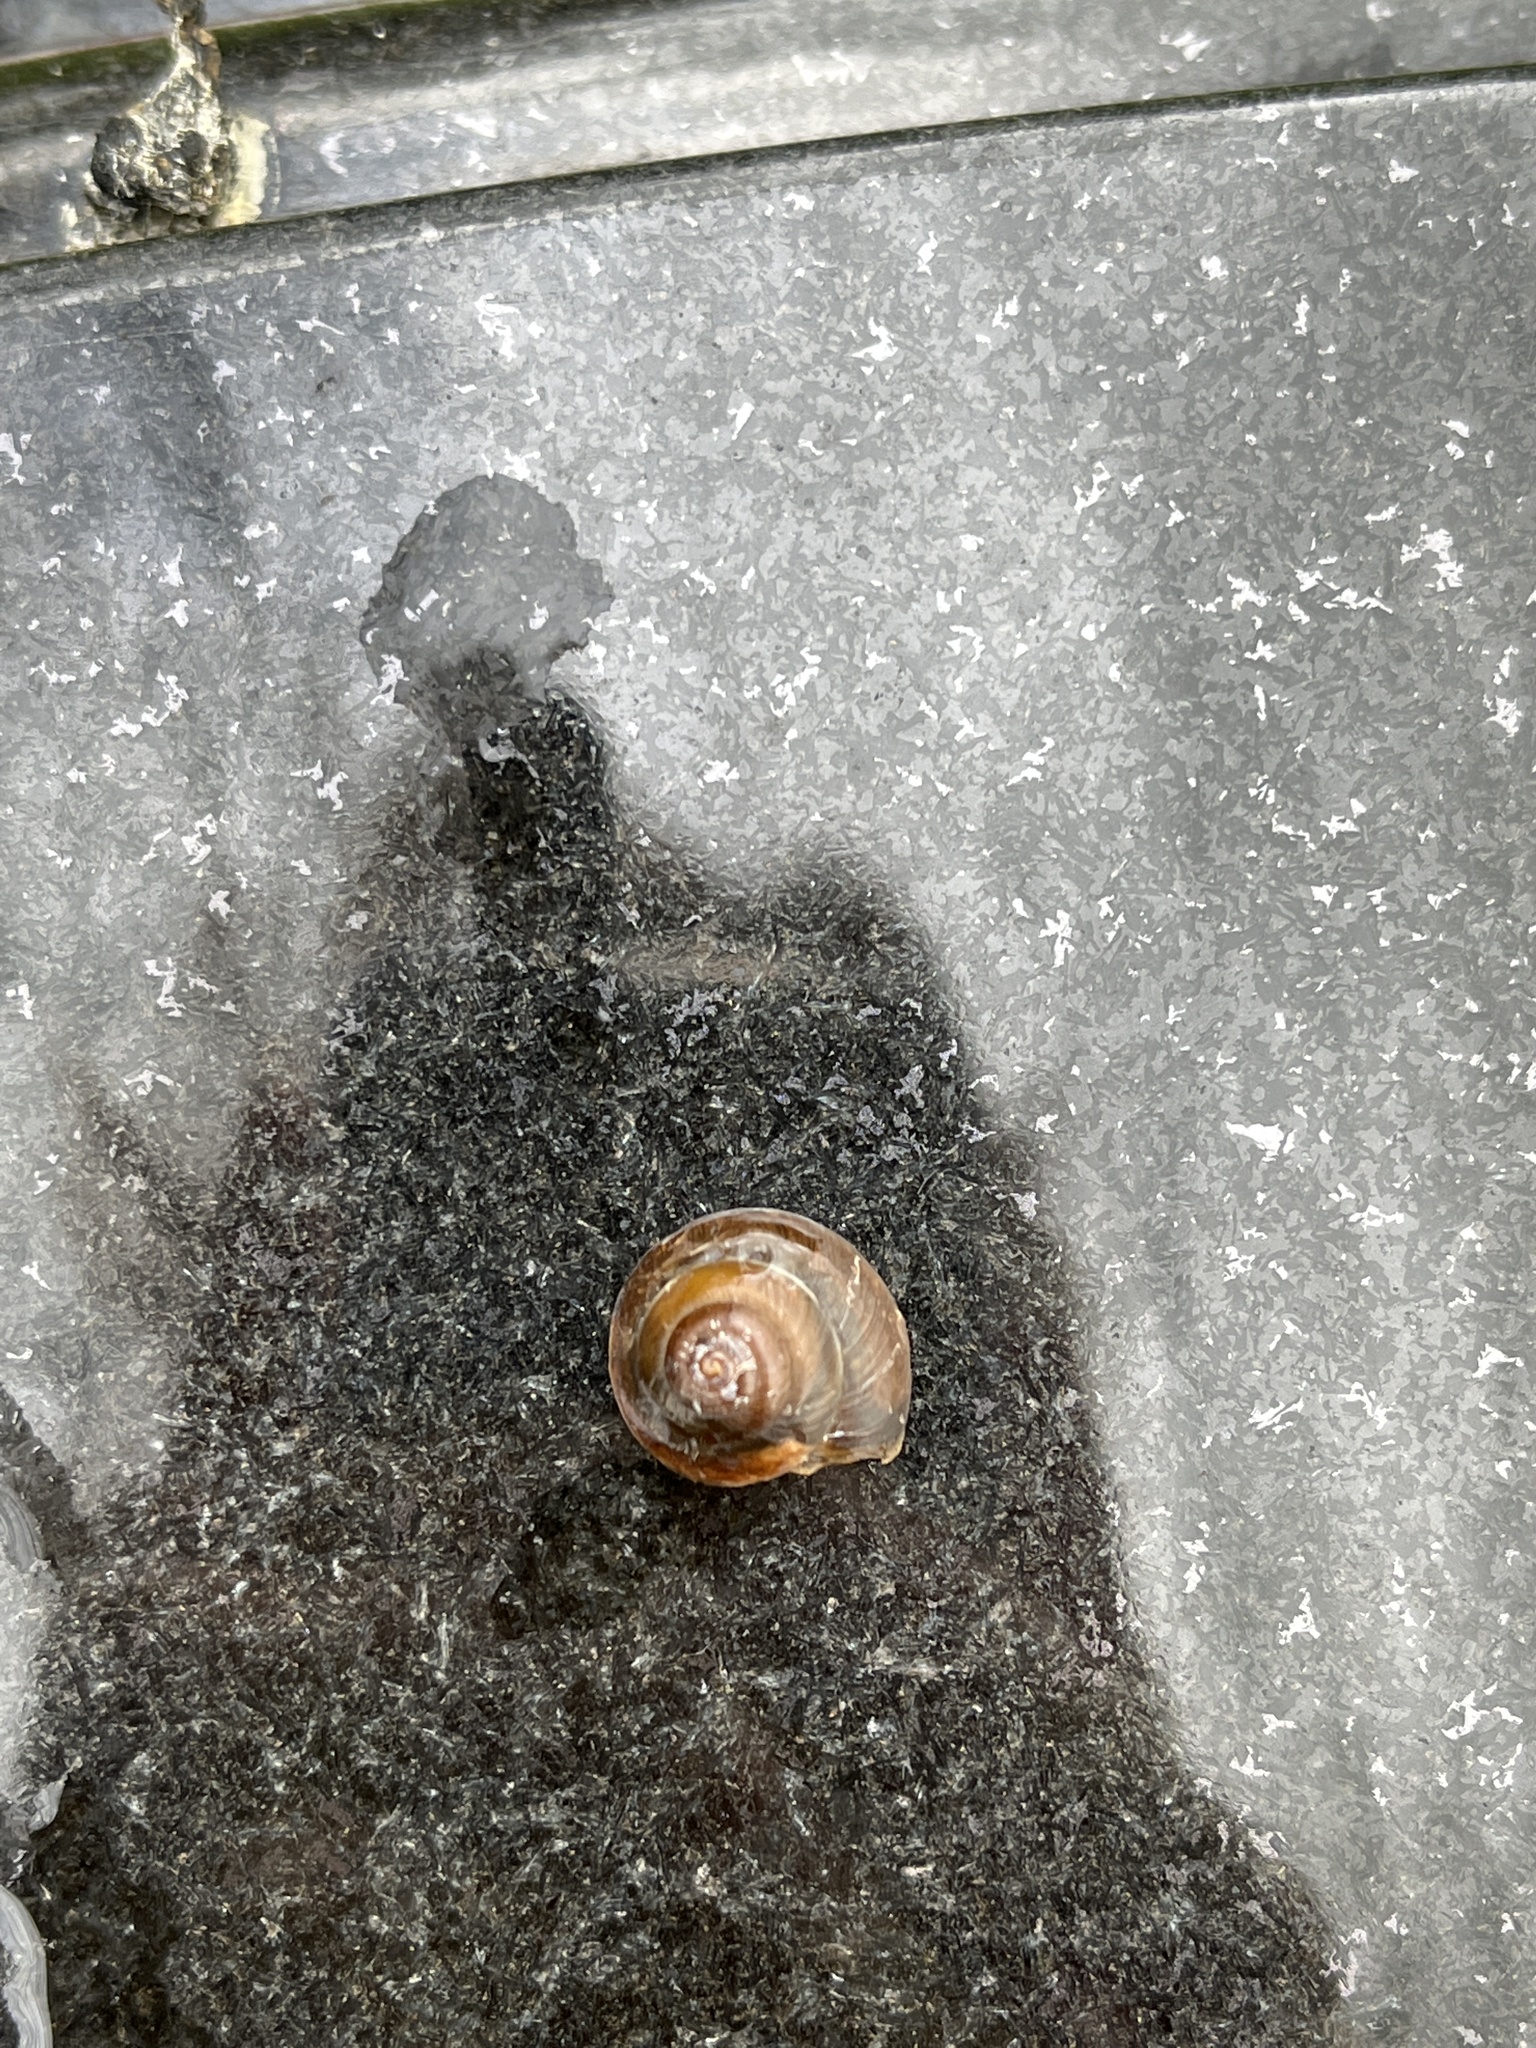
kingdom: Animalia
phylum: Mollusca
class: Gastropoda
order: Stylommatophora
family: Hygromiidae
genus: Hygromia
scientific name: Hygromia cinctella
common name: Girdled snail
